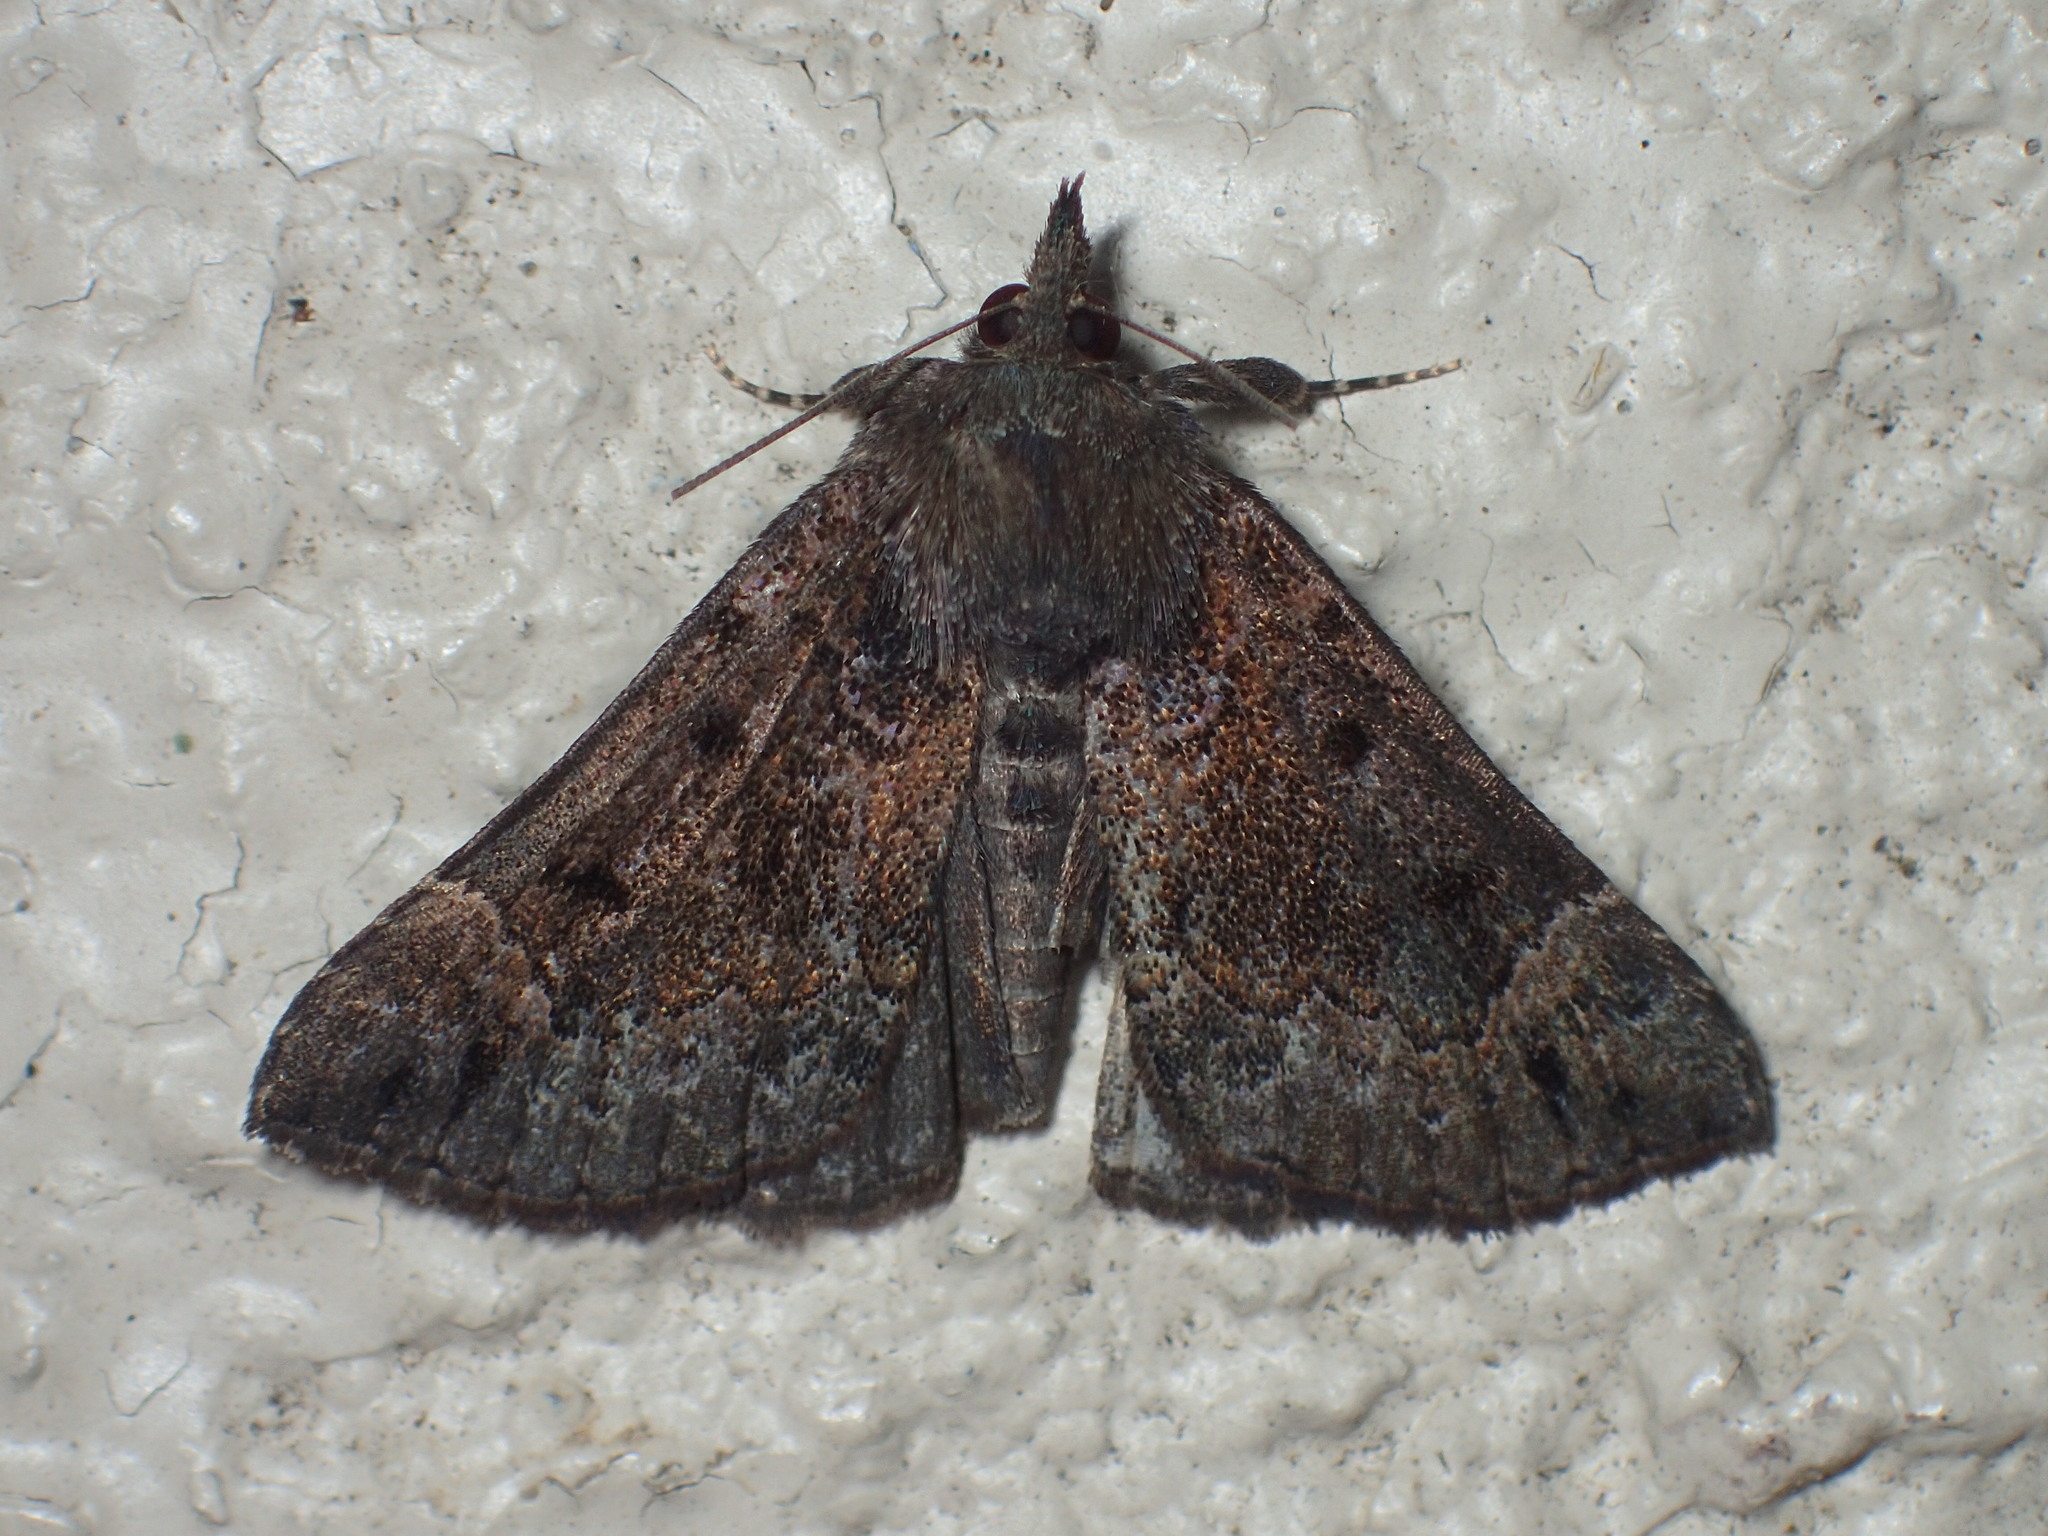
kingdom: Animalia
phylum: Arthropoda
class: Insecta
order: Lepidoptera
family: Erebidae
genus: Hypena
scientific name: Hypena palparia
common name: Mottled bomolocha moth
